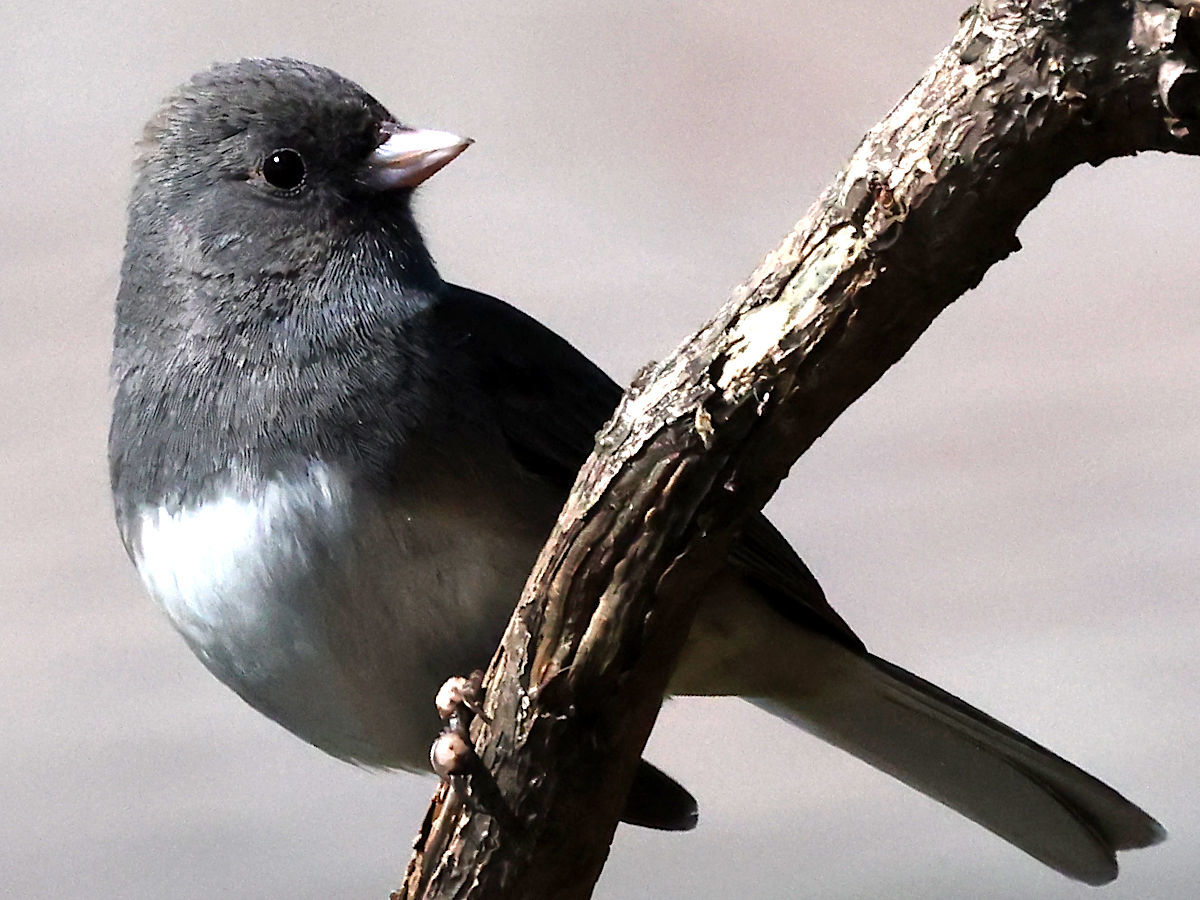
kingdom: Animalia
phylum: Chordata
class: Aves
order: Passeriformes
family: Passerellidae
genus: Junco
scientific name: Junco hyemalis
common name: Dark-eyed junco
